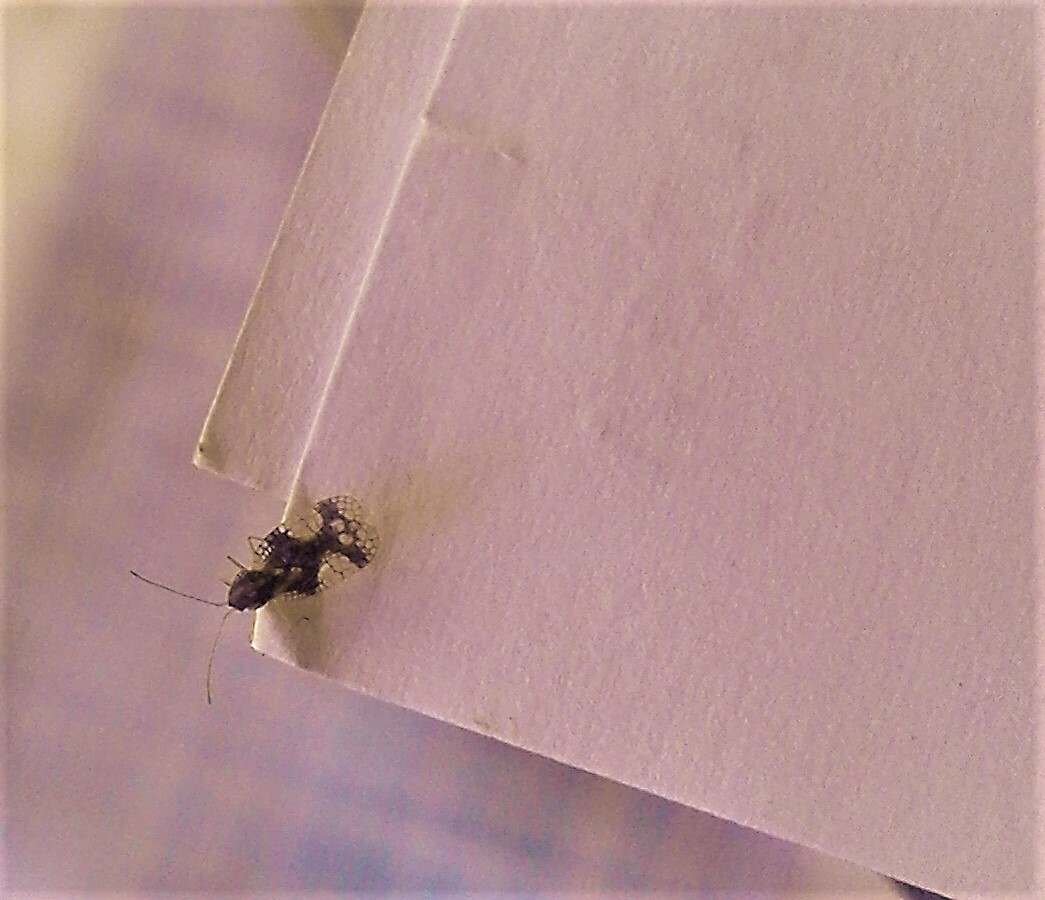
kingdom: Animalia
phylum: Arthropoda
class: Insecta
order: Hemiptera
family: Tingidae
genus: Stephanitis
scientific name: Stephanitis takeyai
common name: Andromeda lacebug
